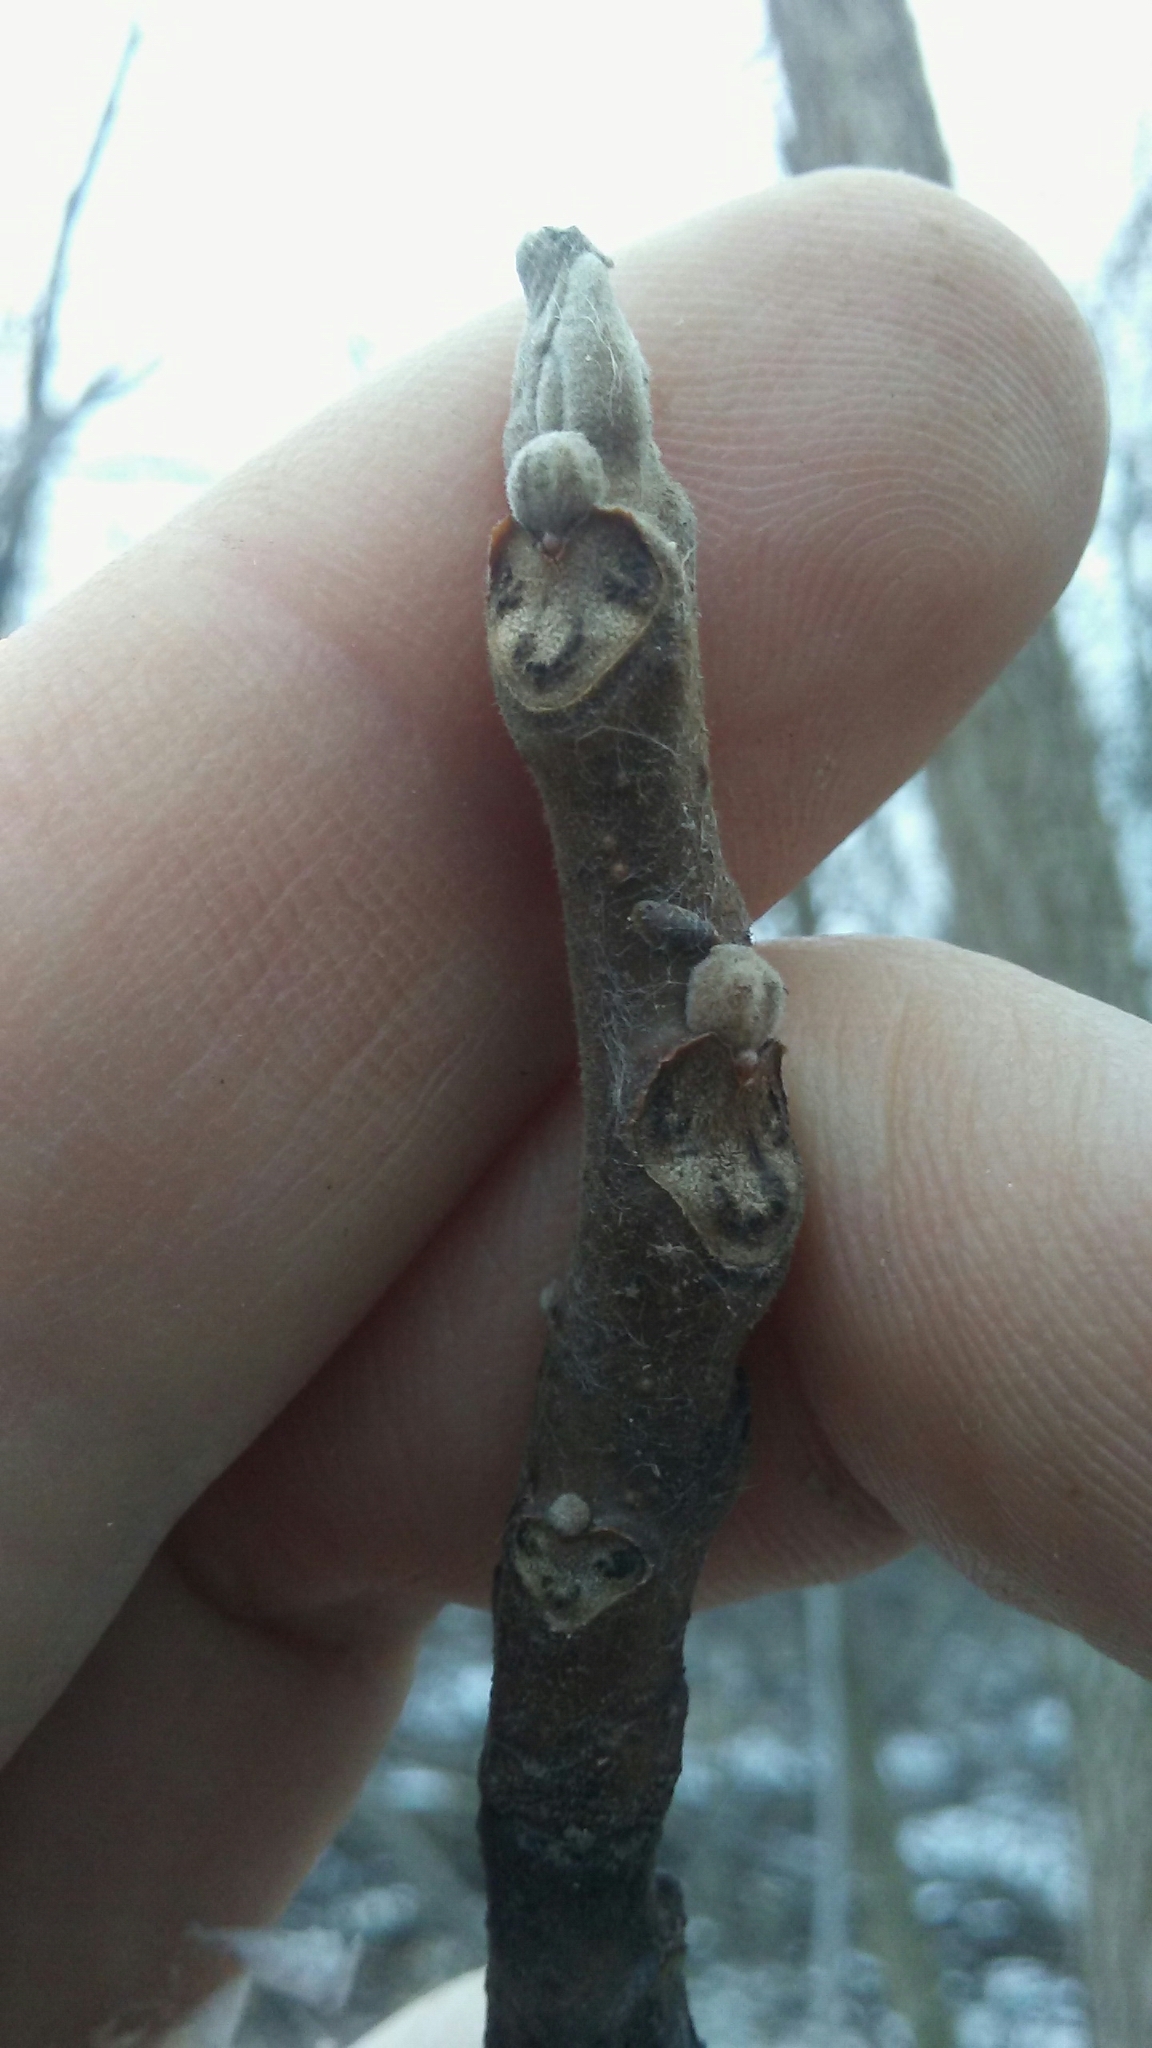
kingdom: Plantae
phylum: Tracheophyta
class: Magnoliopsida
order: Fagales
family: Juglandaceae
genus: Juglans
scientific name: Juglans nigra
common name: Black walnut
